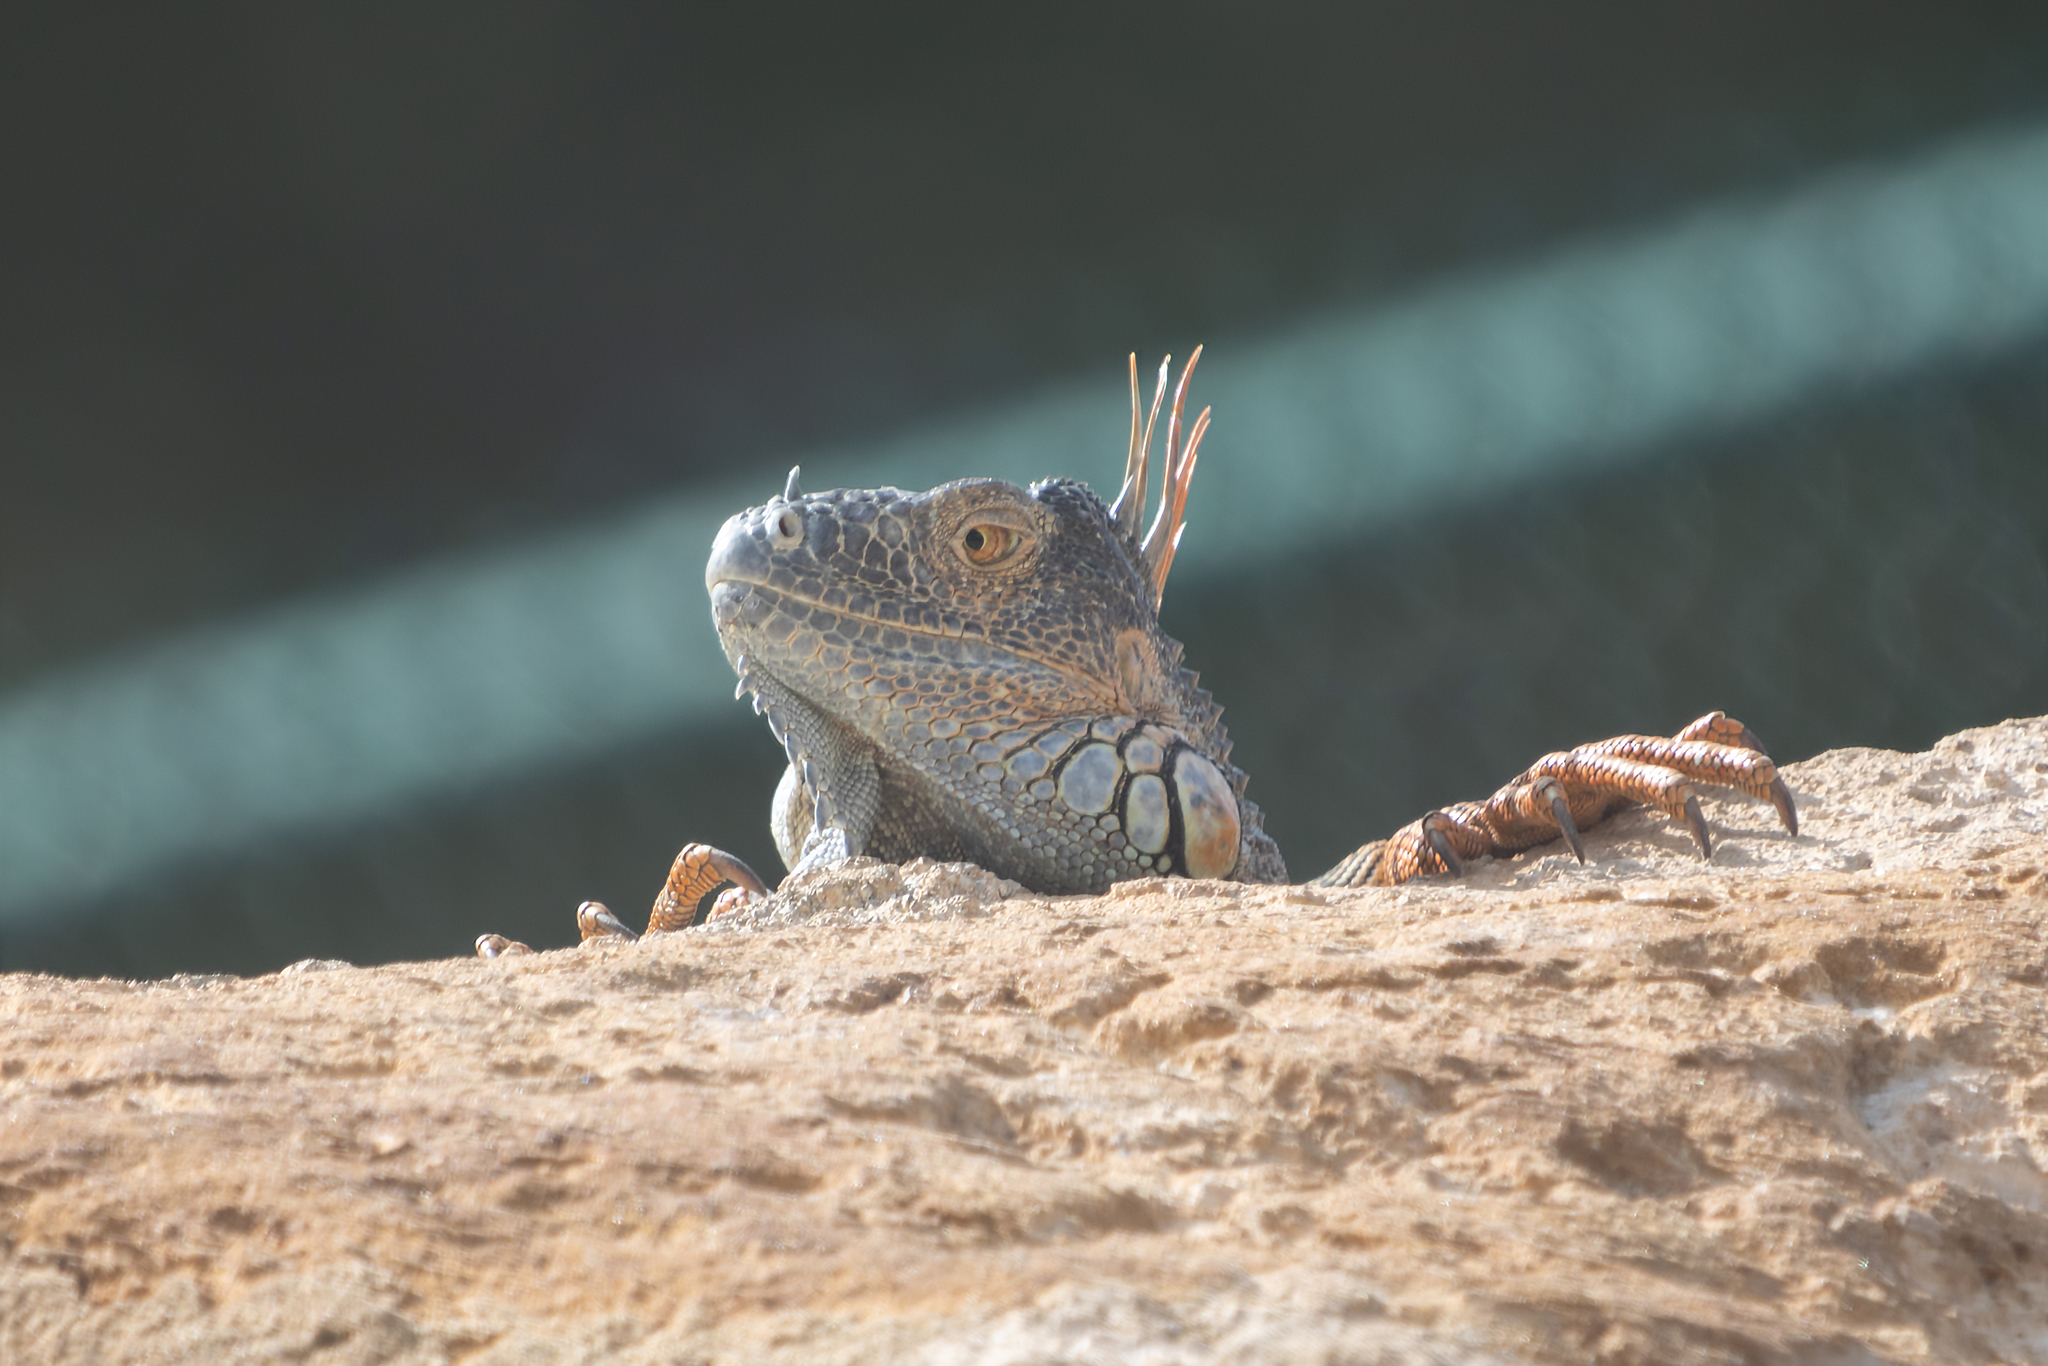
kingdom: Animalia
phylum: Chordata
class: Squamata
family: Iguanidae
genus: Iguana
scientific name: Iguana iguana
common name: Green iguana
